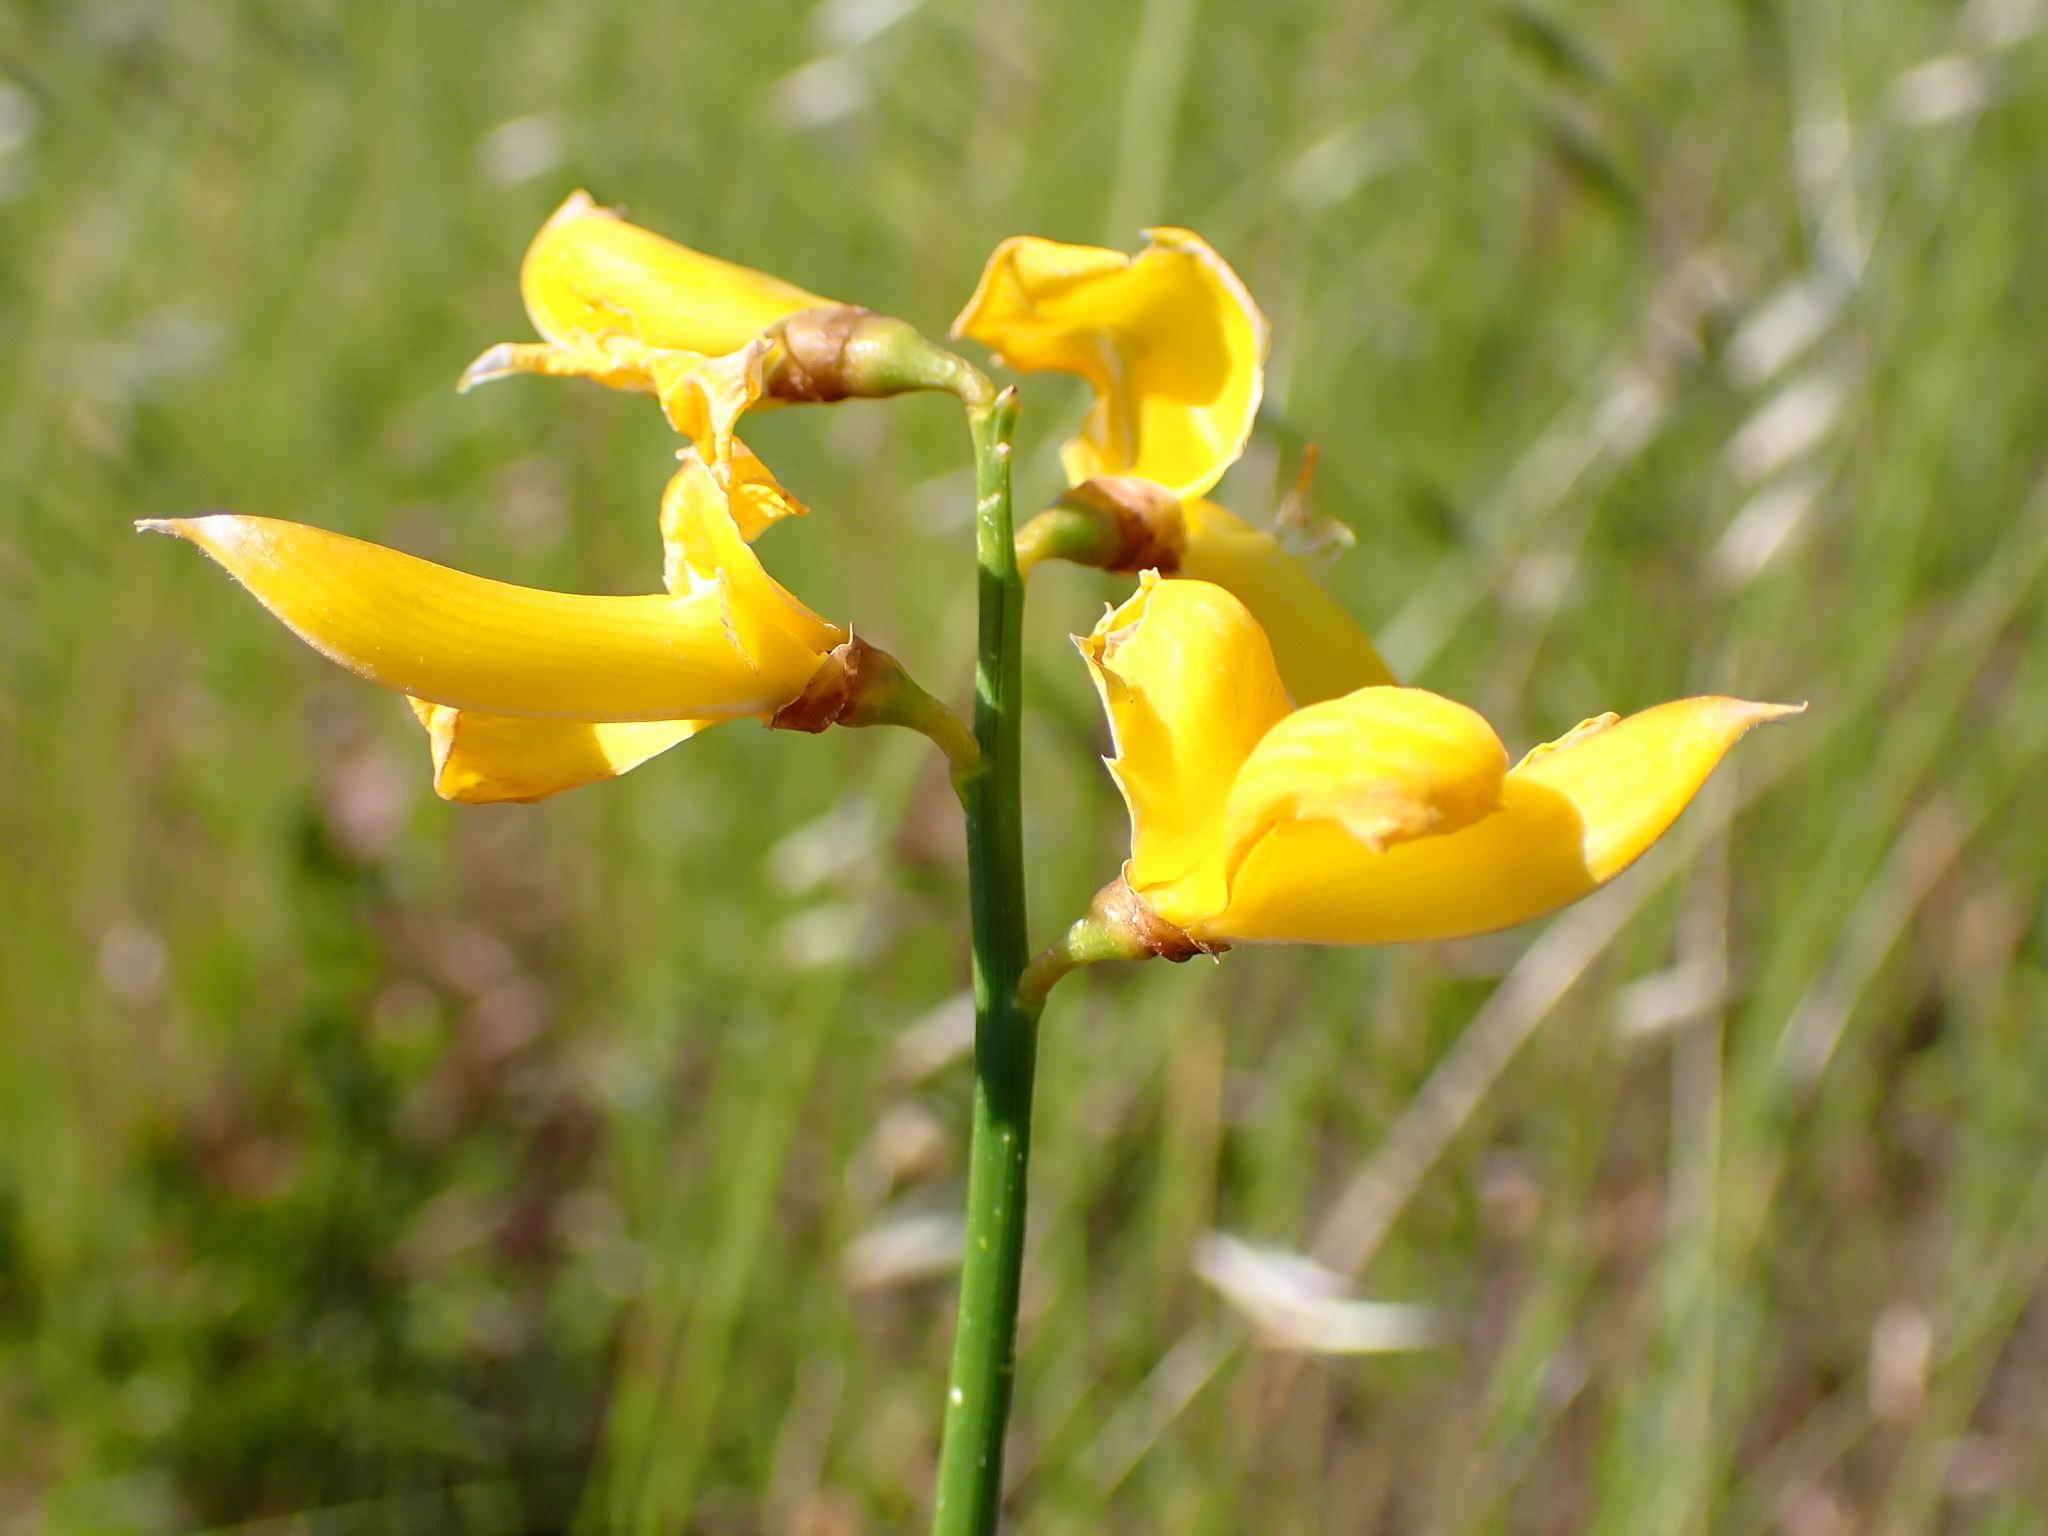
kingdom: Plantae
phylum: Tracheophyta
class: Magnoliopsida
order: Fabales
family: Fabaceae
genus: Spartium
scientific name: Spartium junceum
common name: Spanish broom
